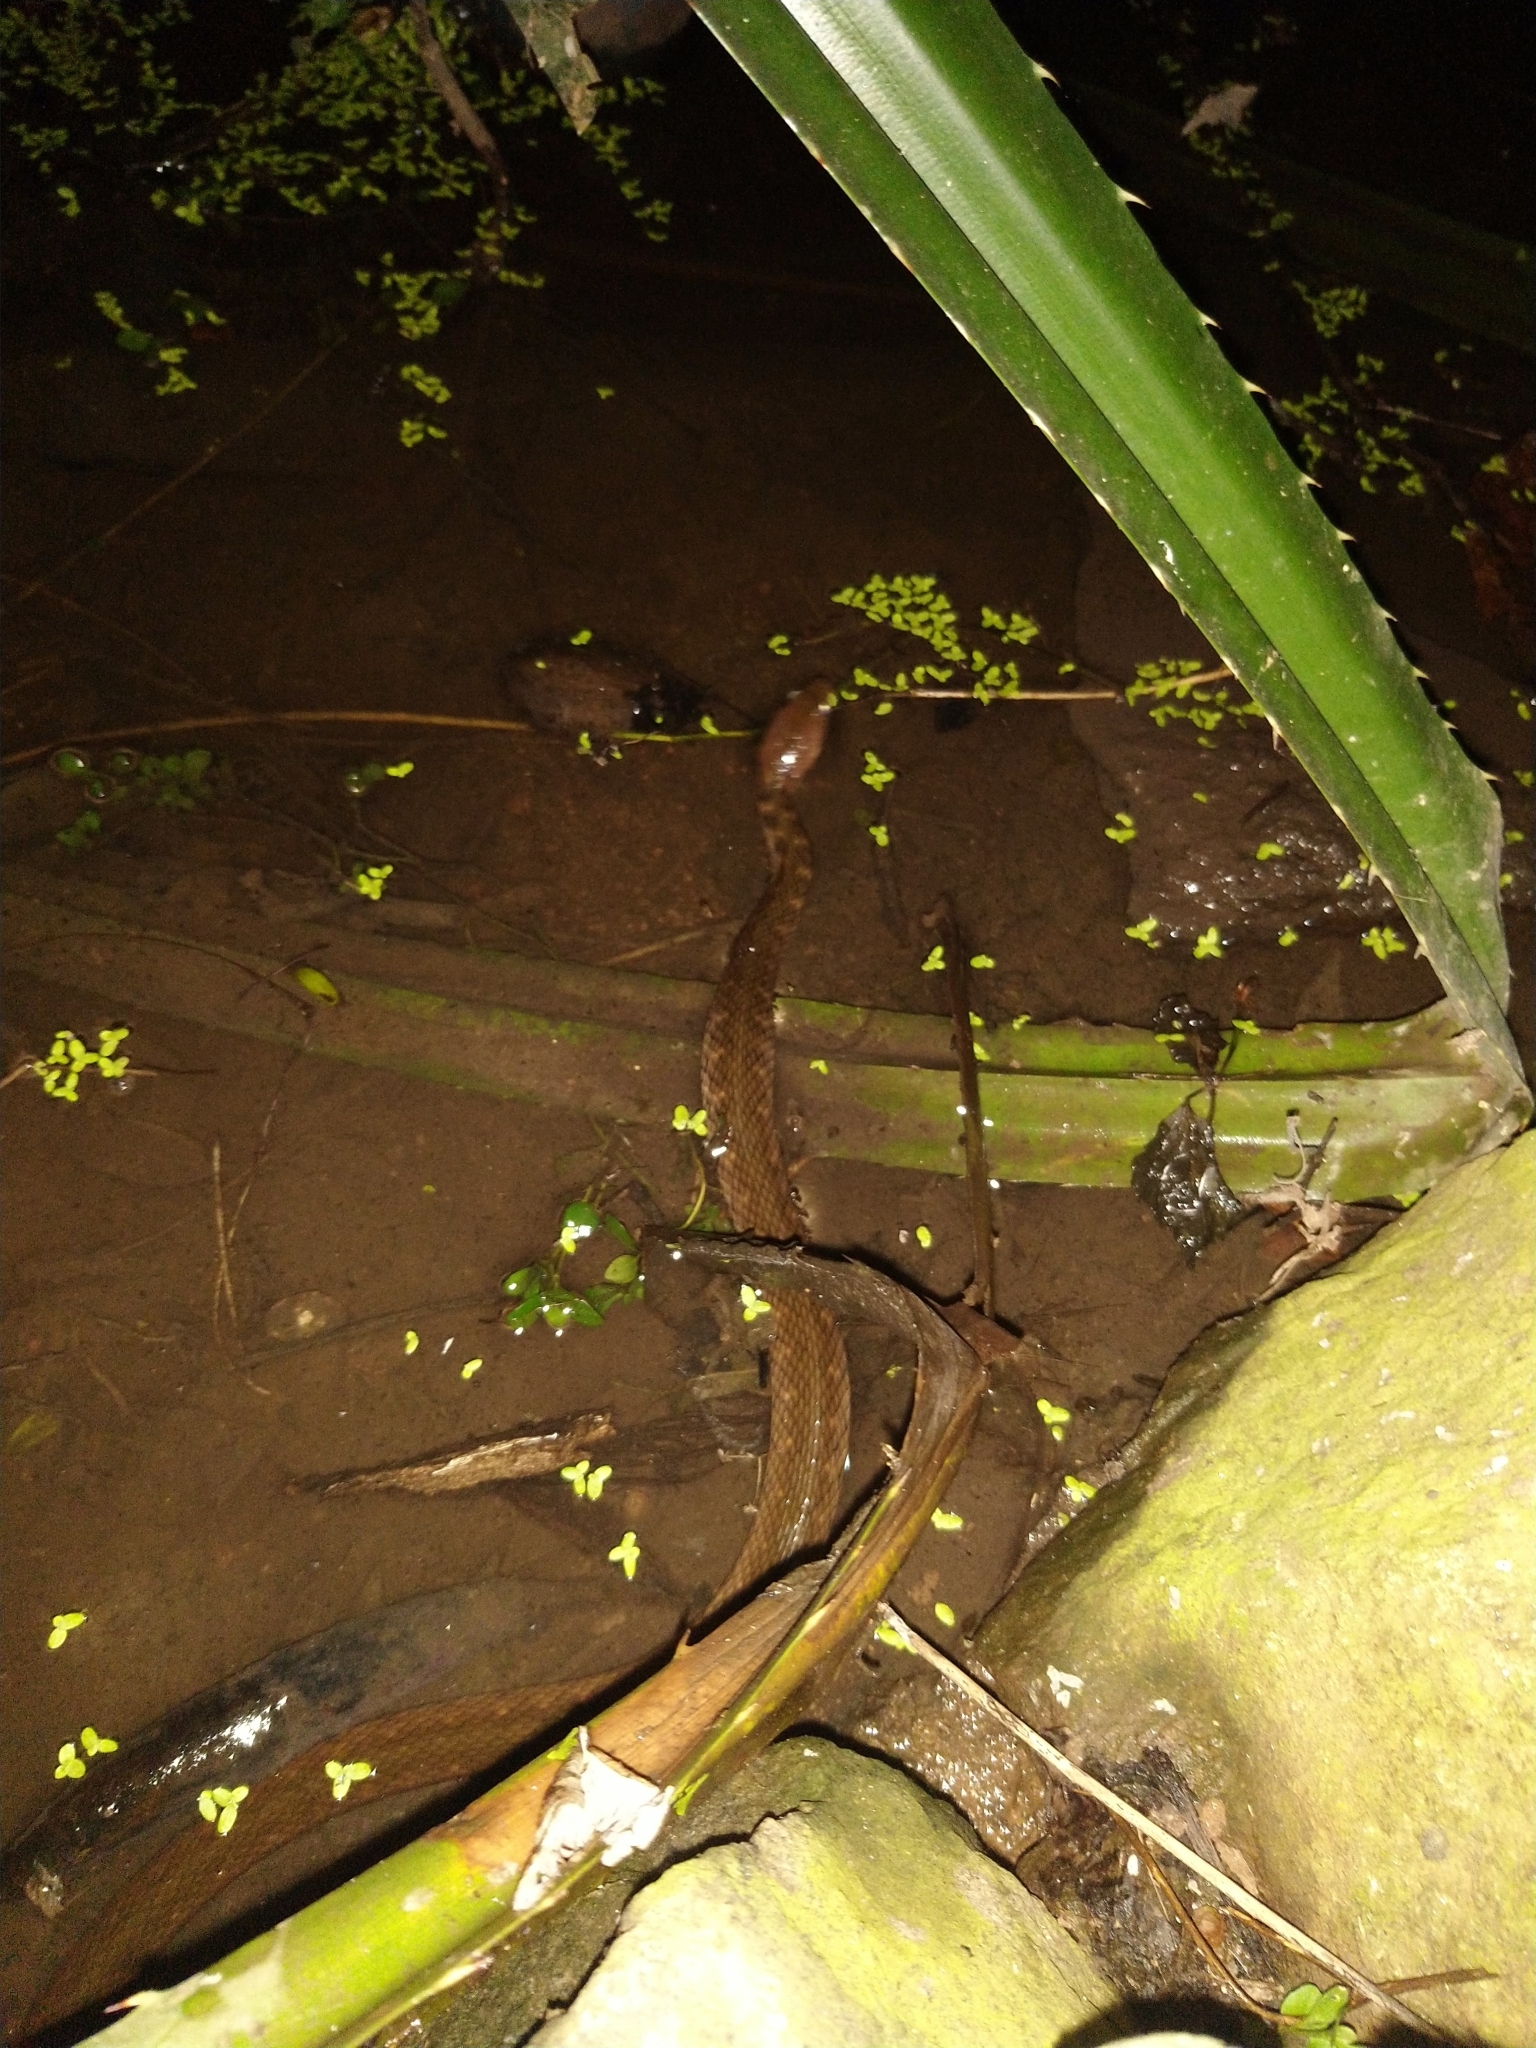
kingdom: Animalia
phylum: Chordata
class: Squamata
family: Colubridae
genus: Fowlea
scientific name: Fowlea piscator
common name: Asiatic water snake
